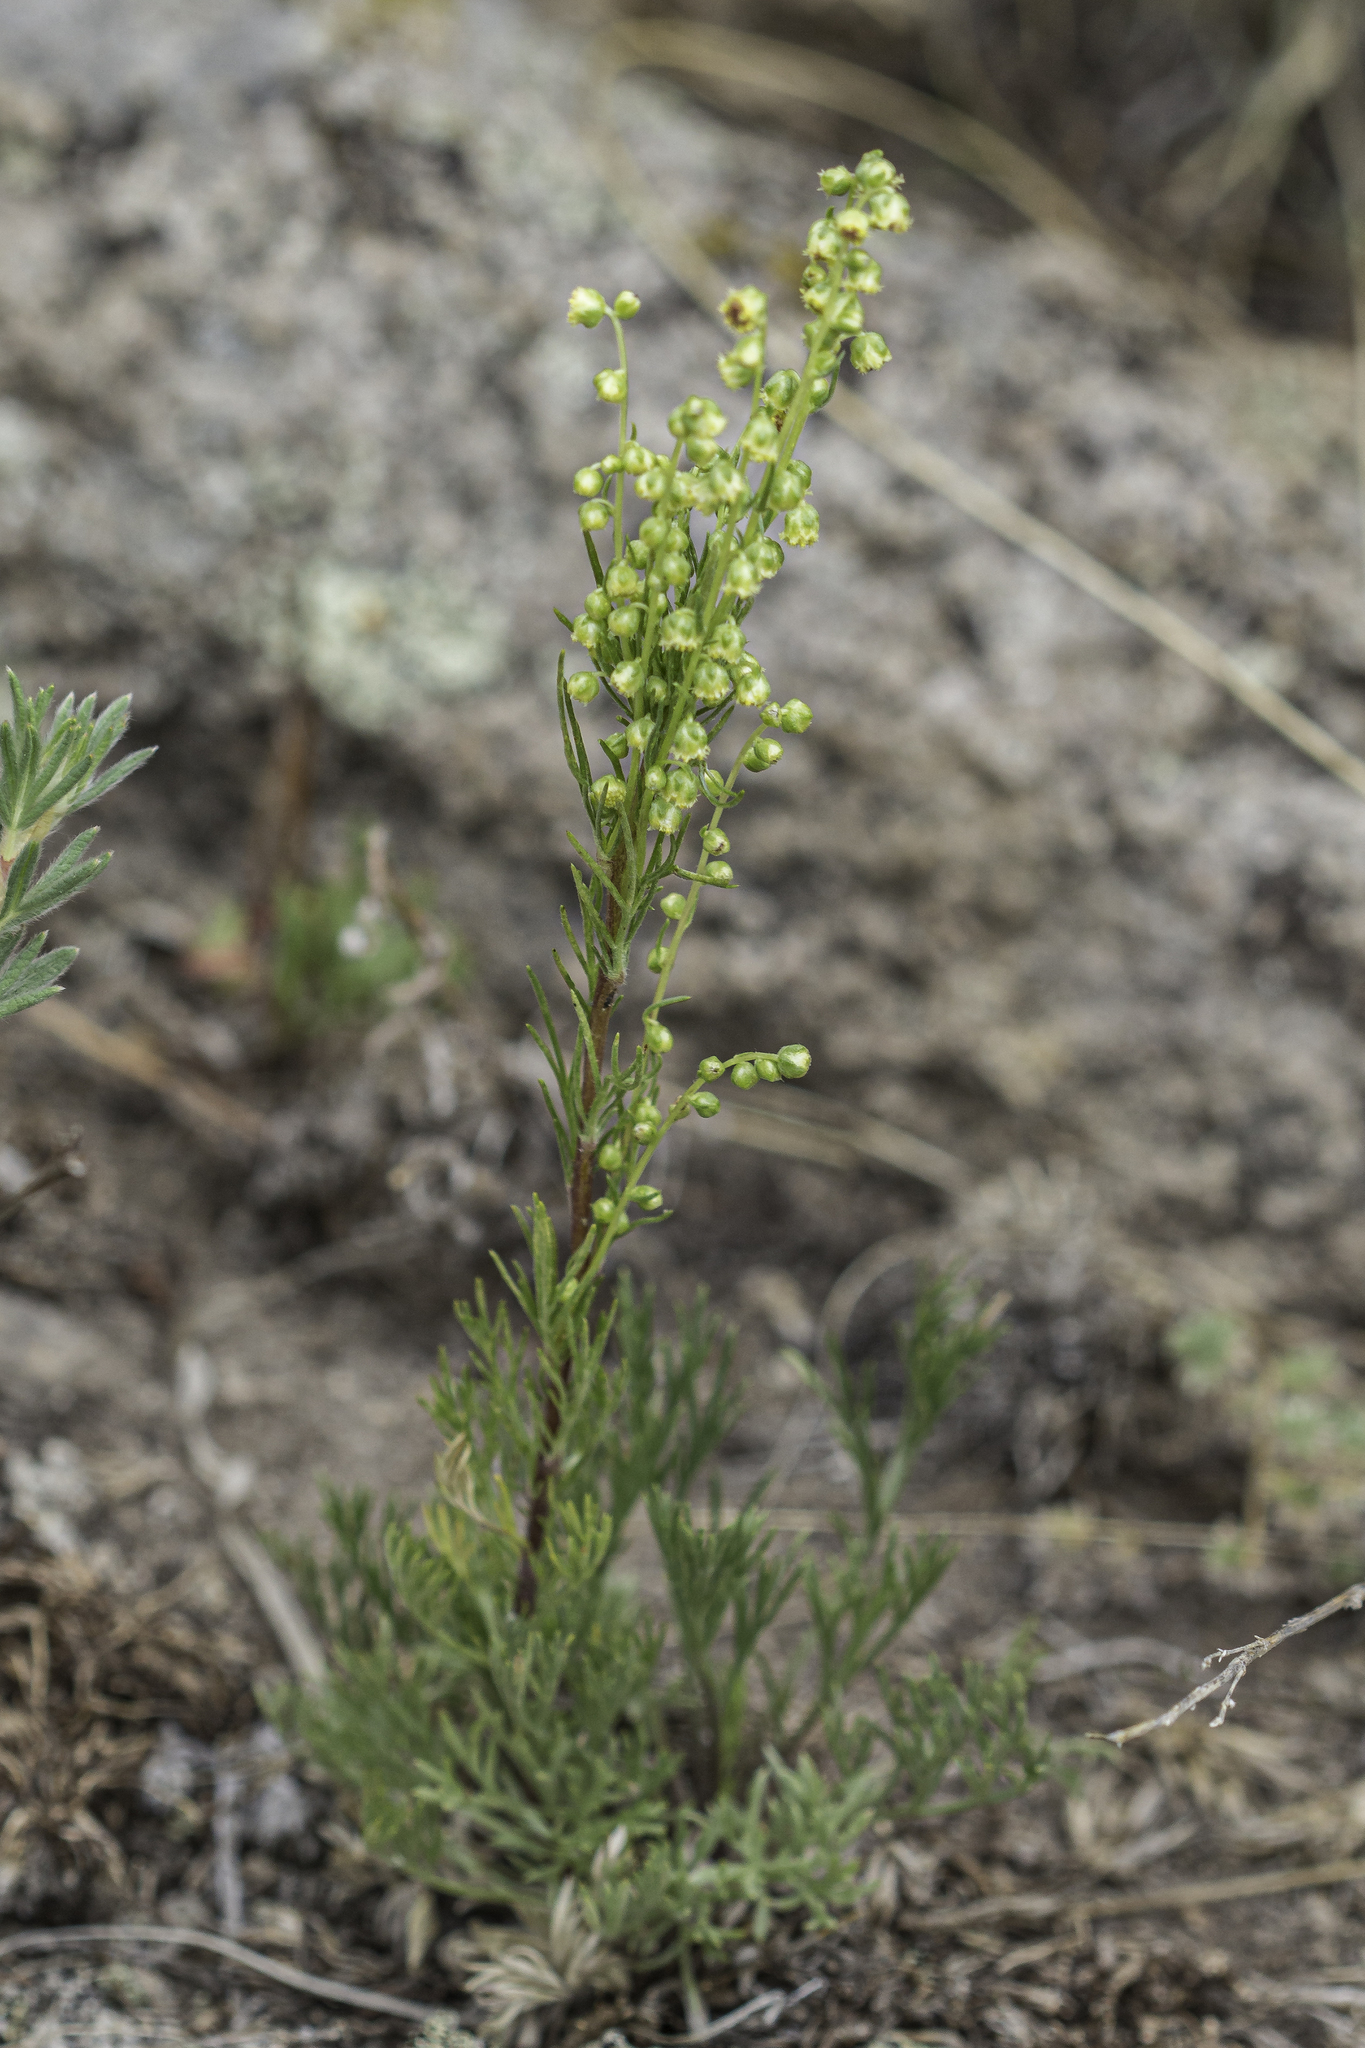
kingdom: Plantae
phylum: Tracheophyta
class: Magnoliopsida
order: Asterales
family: Asteraceae
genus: Artemisia
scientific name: Artemisia campestris
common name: Field wormwood
